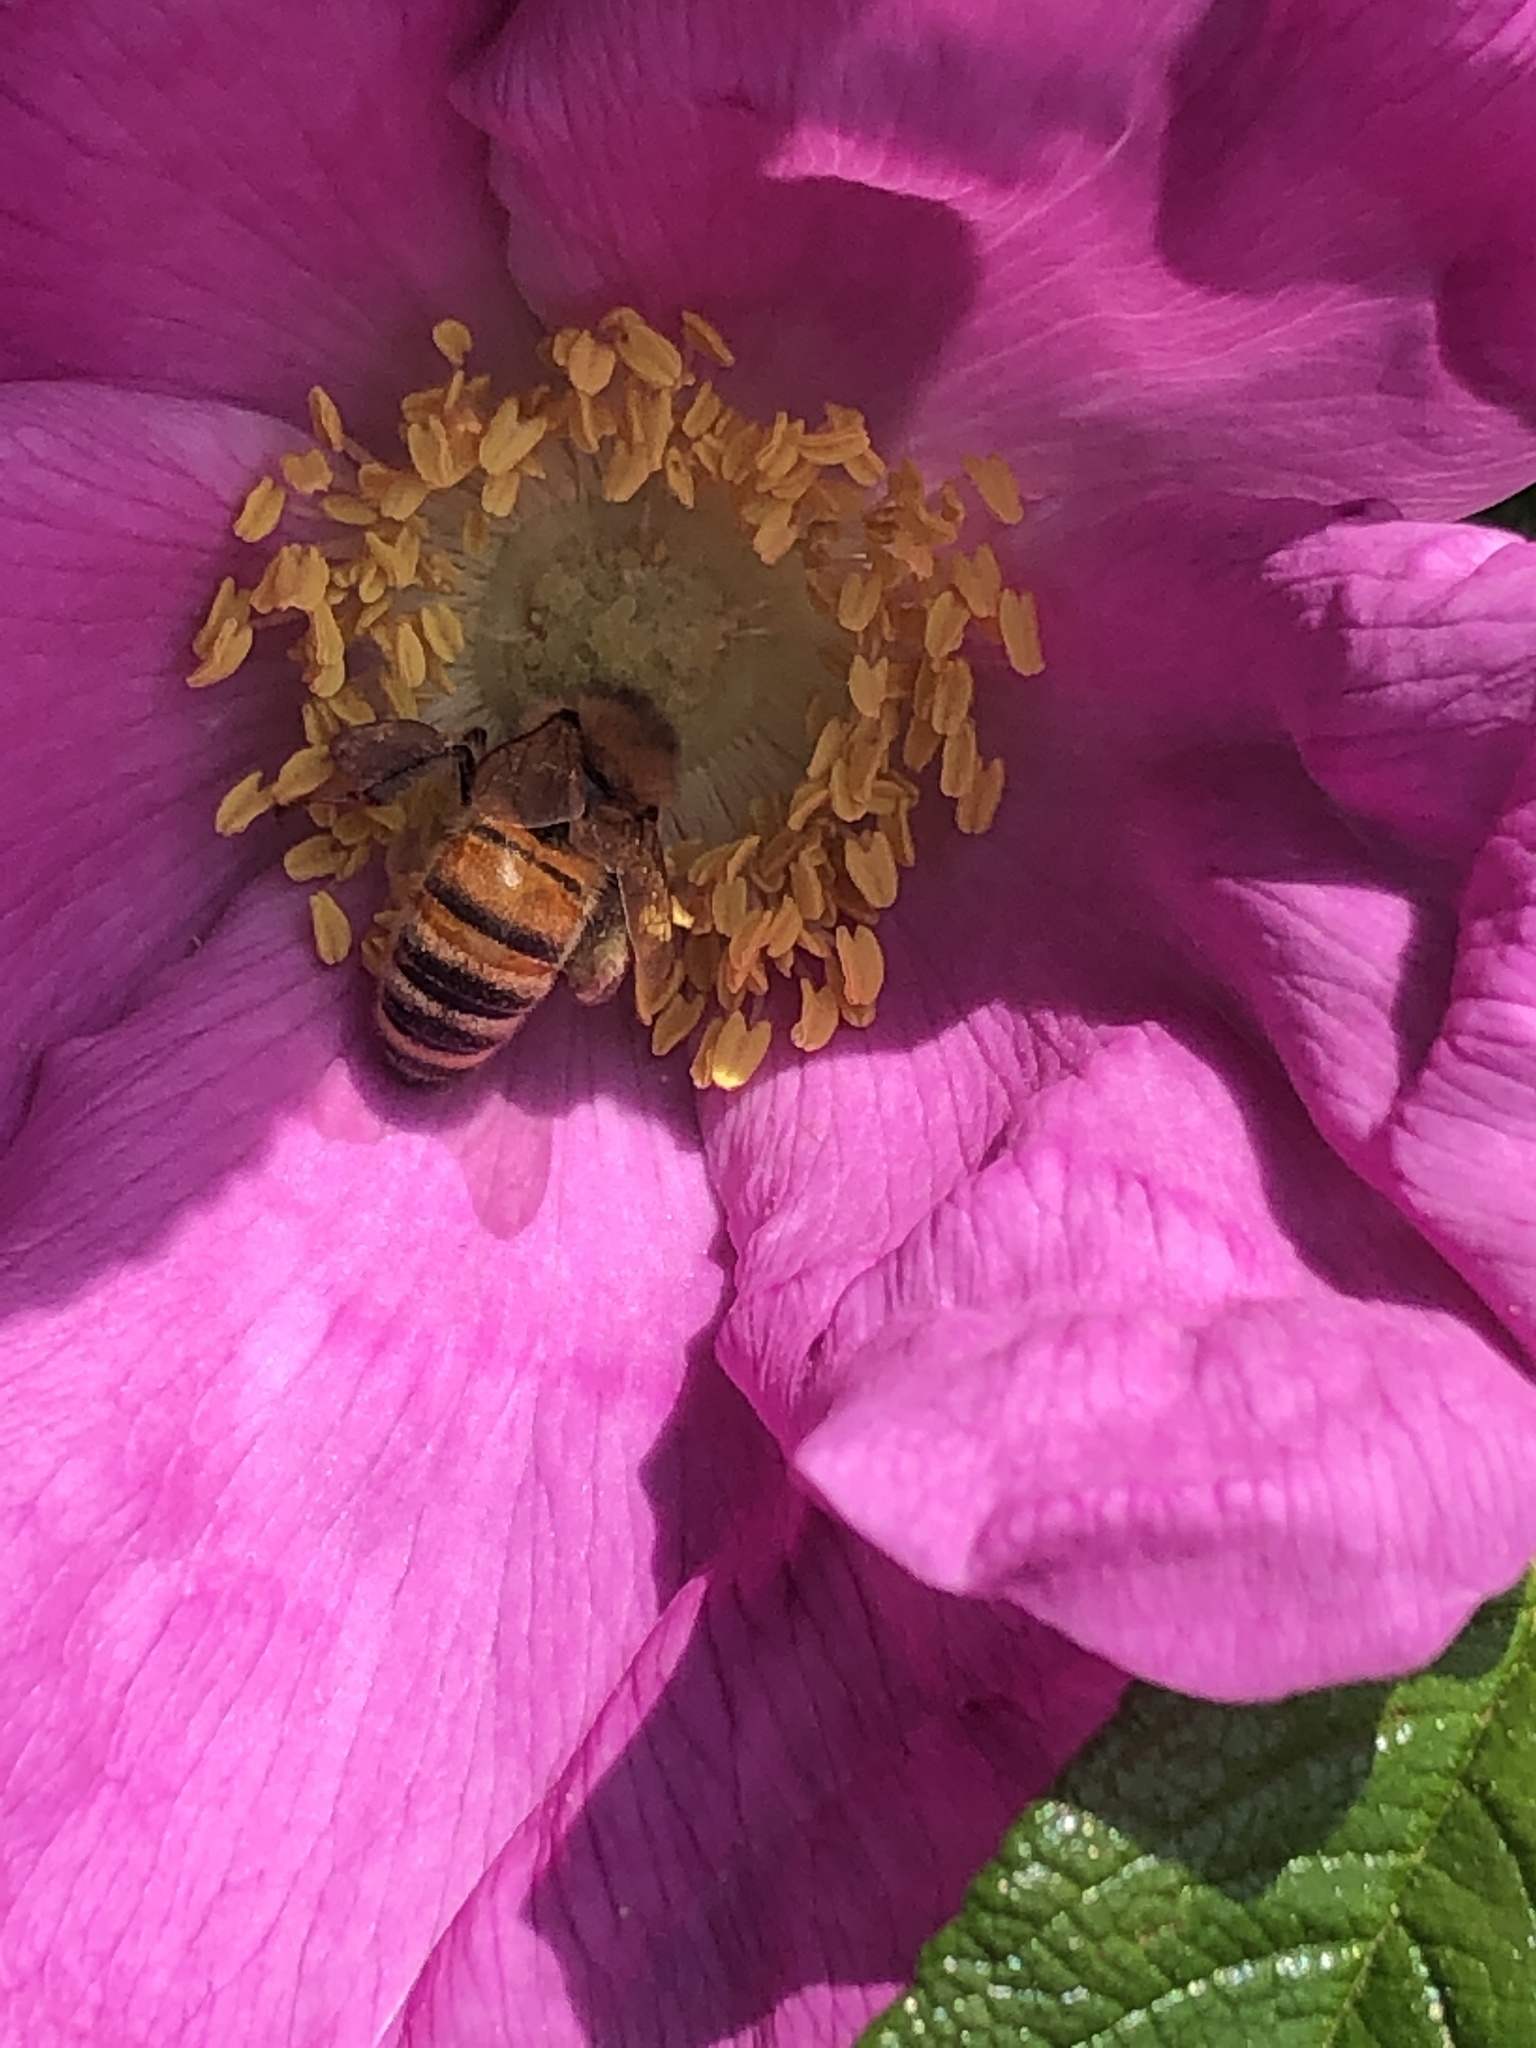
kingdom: Animalia
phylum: Arthropoda
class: Insecta
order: Hymenoptera
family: Apidae
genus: Apis
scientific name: Apis mellifera
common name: Honey bee
